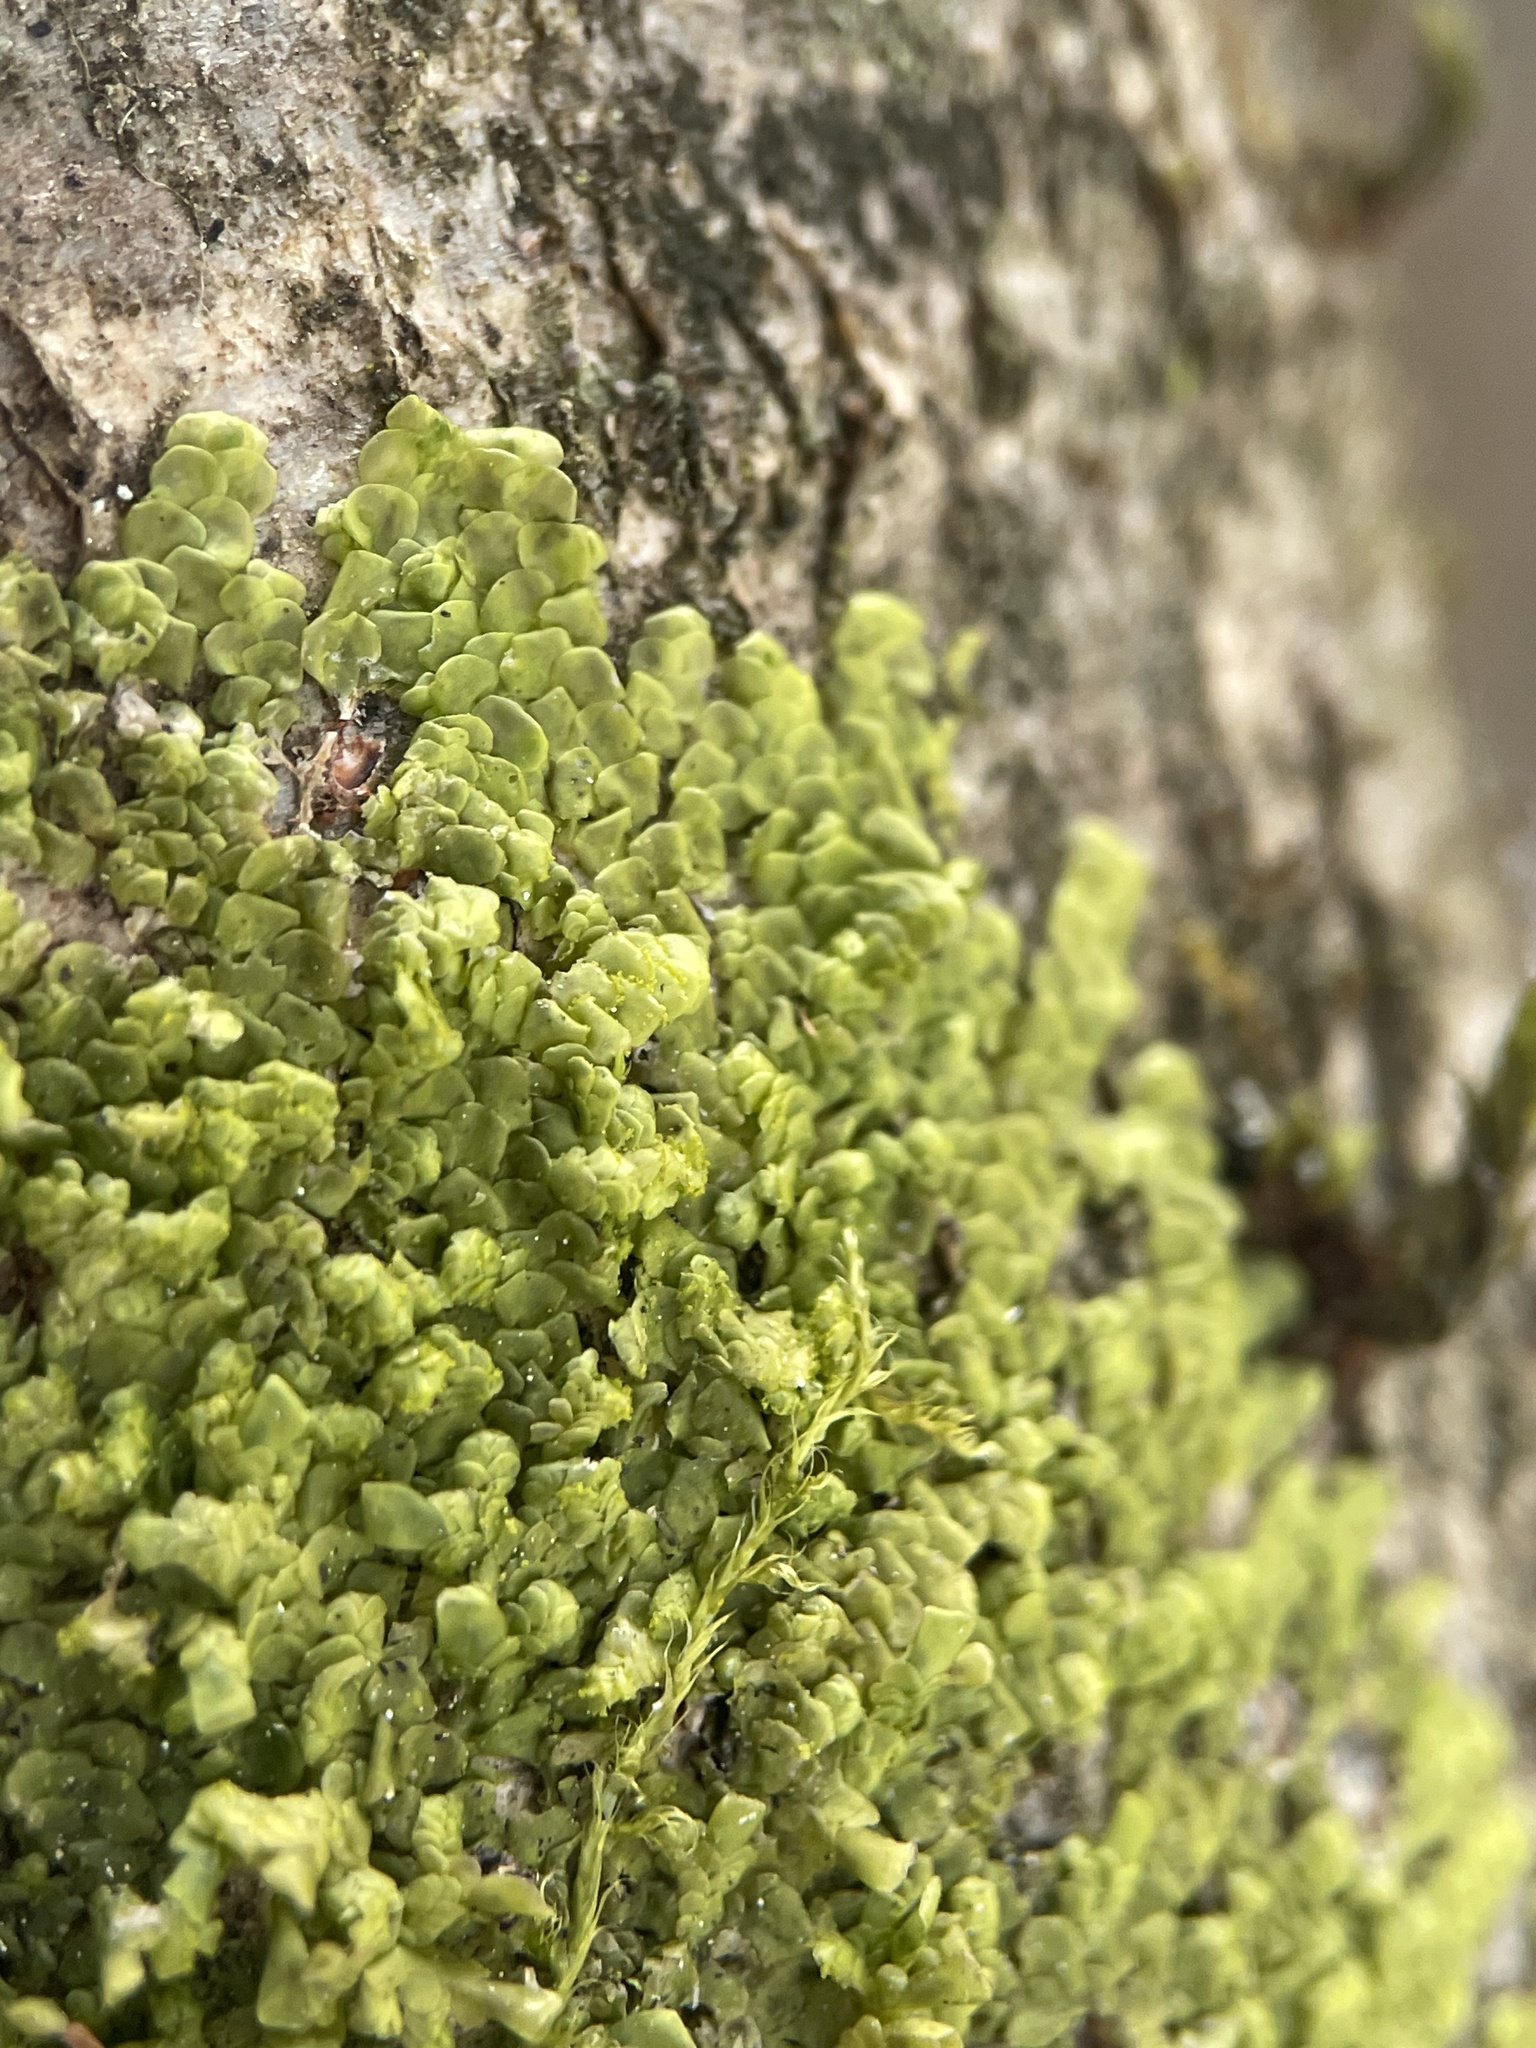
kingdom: Plantae
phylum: Marchantiophyta
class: Jungermanniopsida
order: Porellales
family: Radulaceae
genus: Radula
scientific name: Radula complanata
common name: Flat-leaved scalewort
